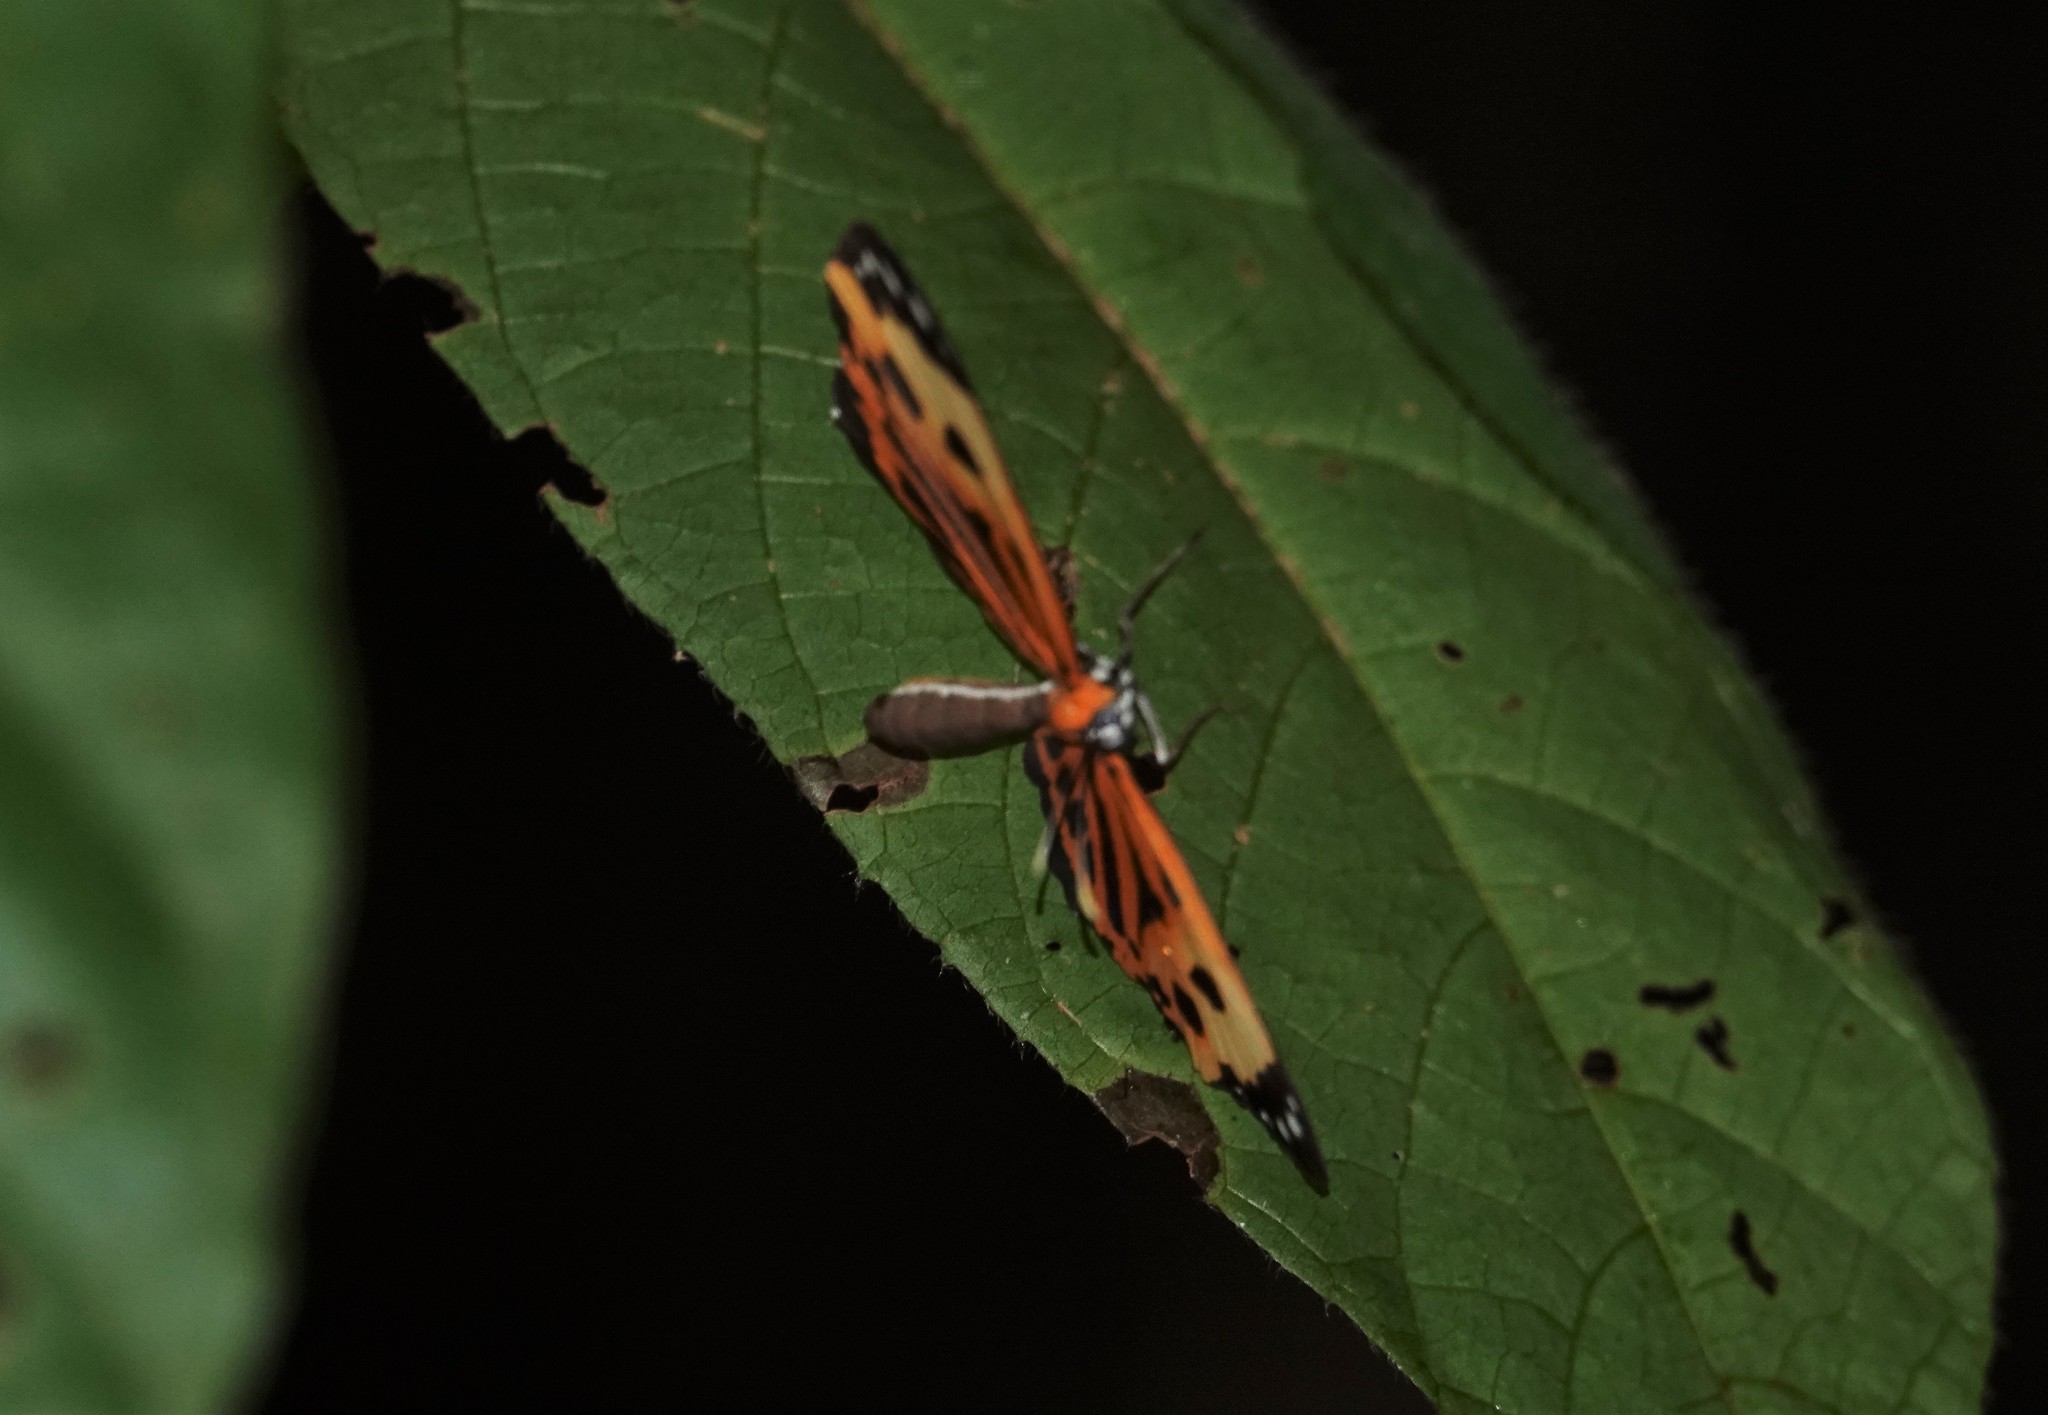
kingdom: Animalia
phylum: Arthropoda
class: Insecta
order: Lepidoptera
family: Riodinidae
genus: Stalachtis
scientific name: Stalachtis calliope
